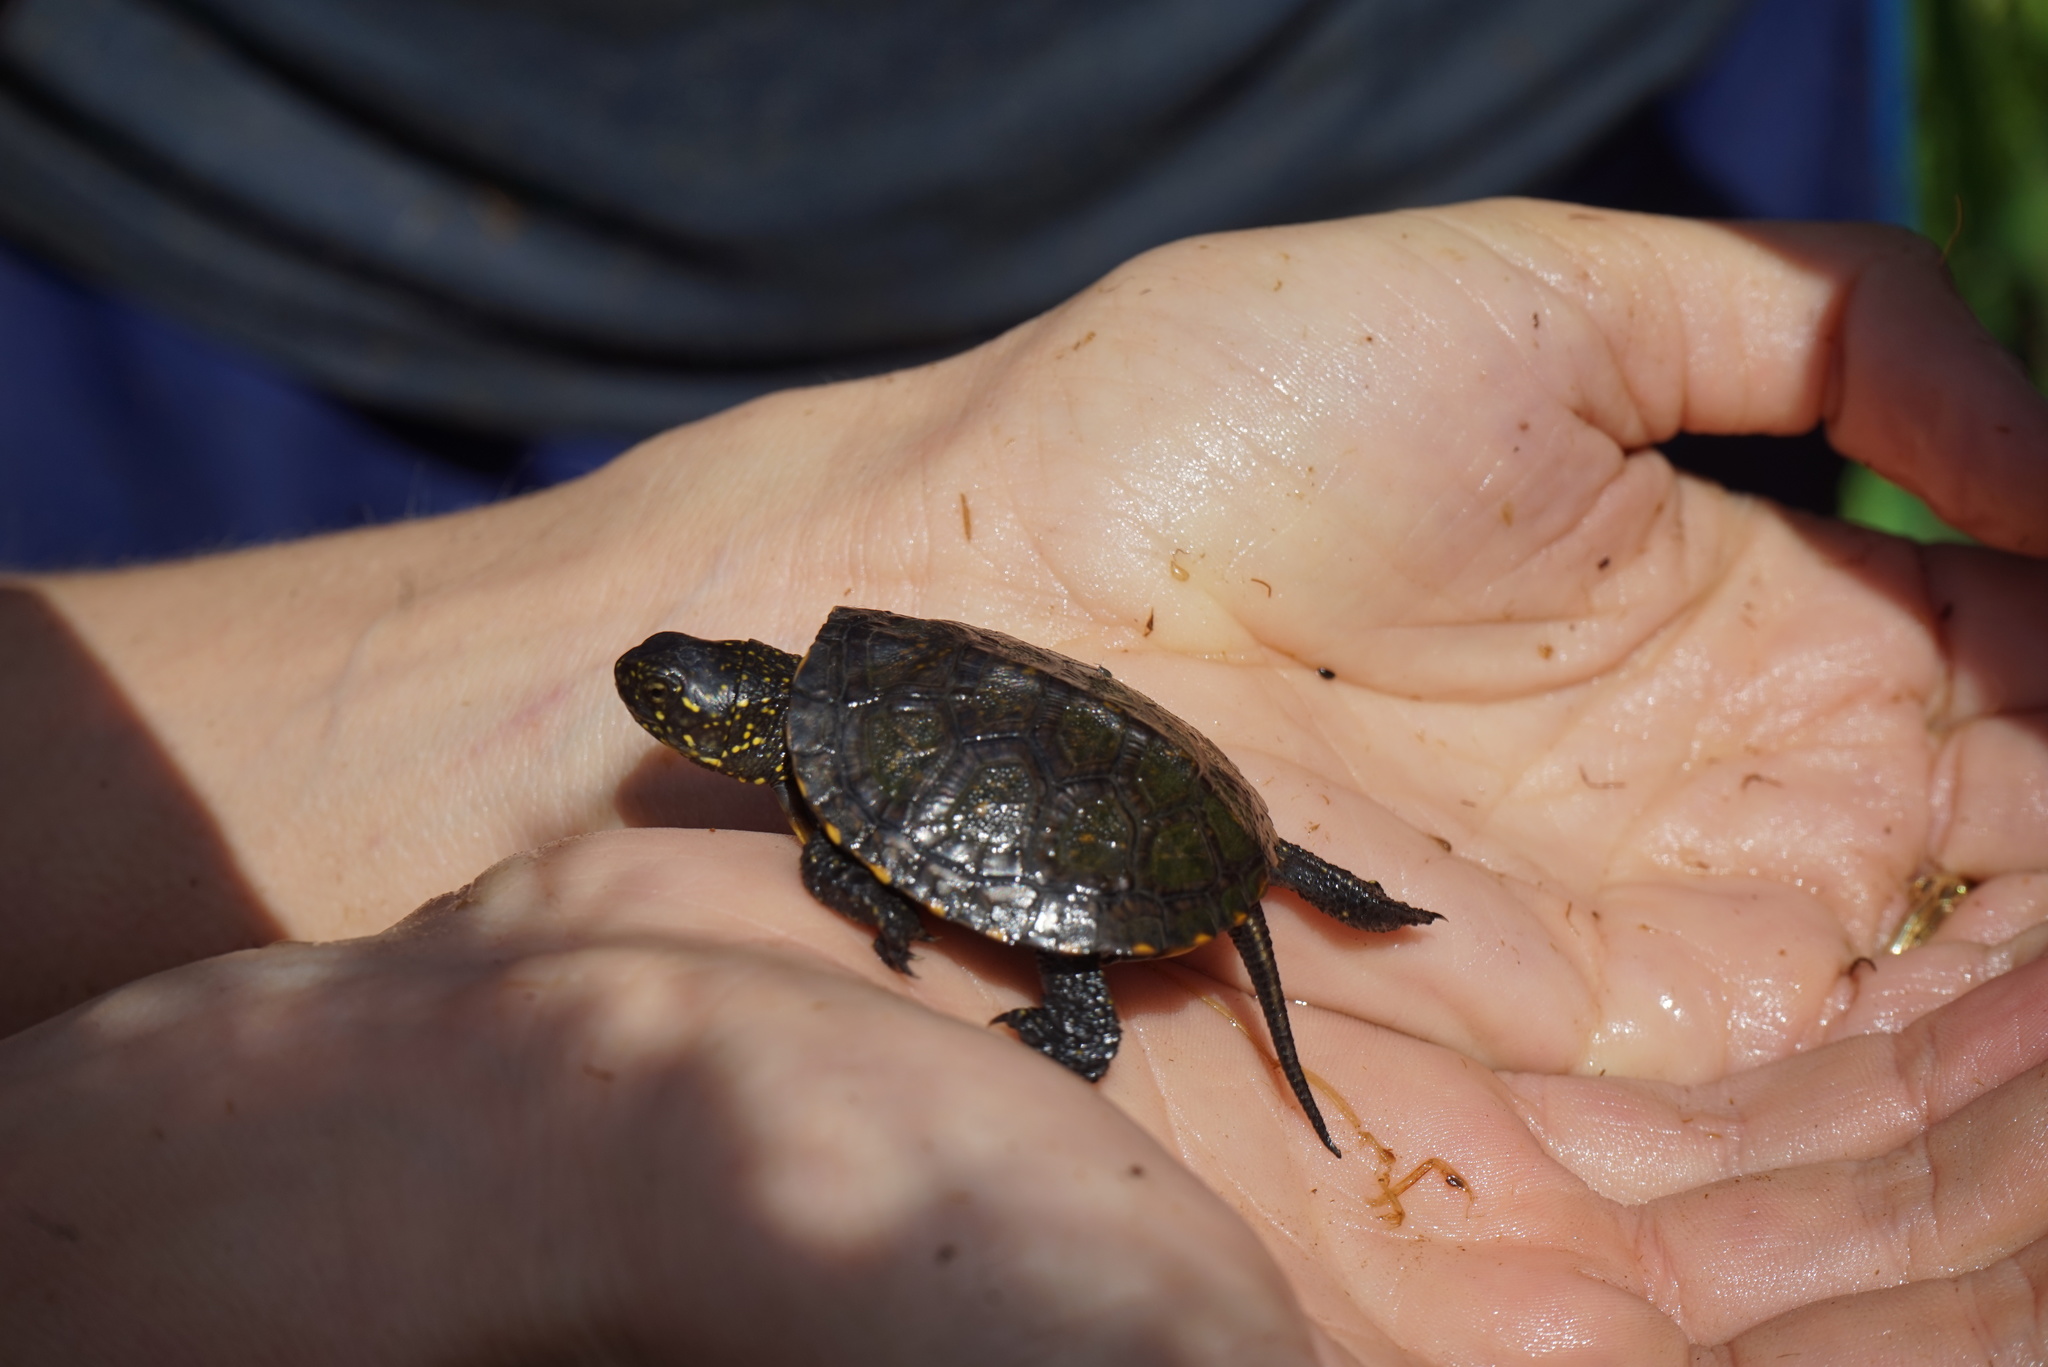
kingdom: Animalia
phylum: Chordata
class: Testudines
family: Emydidae
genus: Emys
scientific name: Emys orbicularis
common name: European pond turtle
